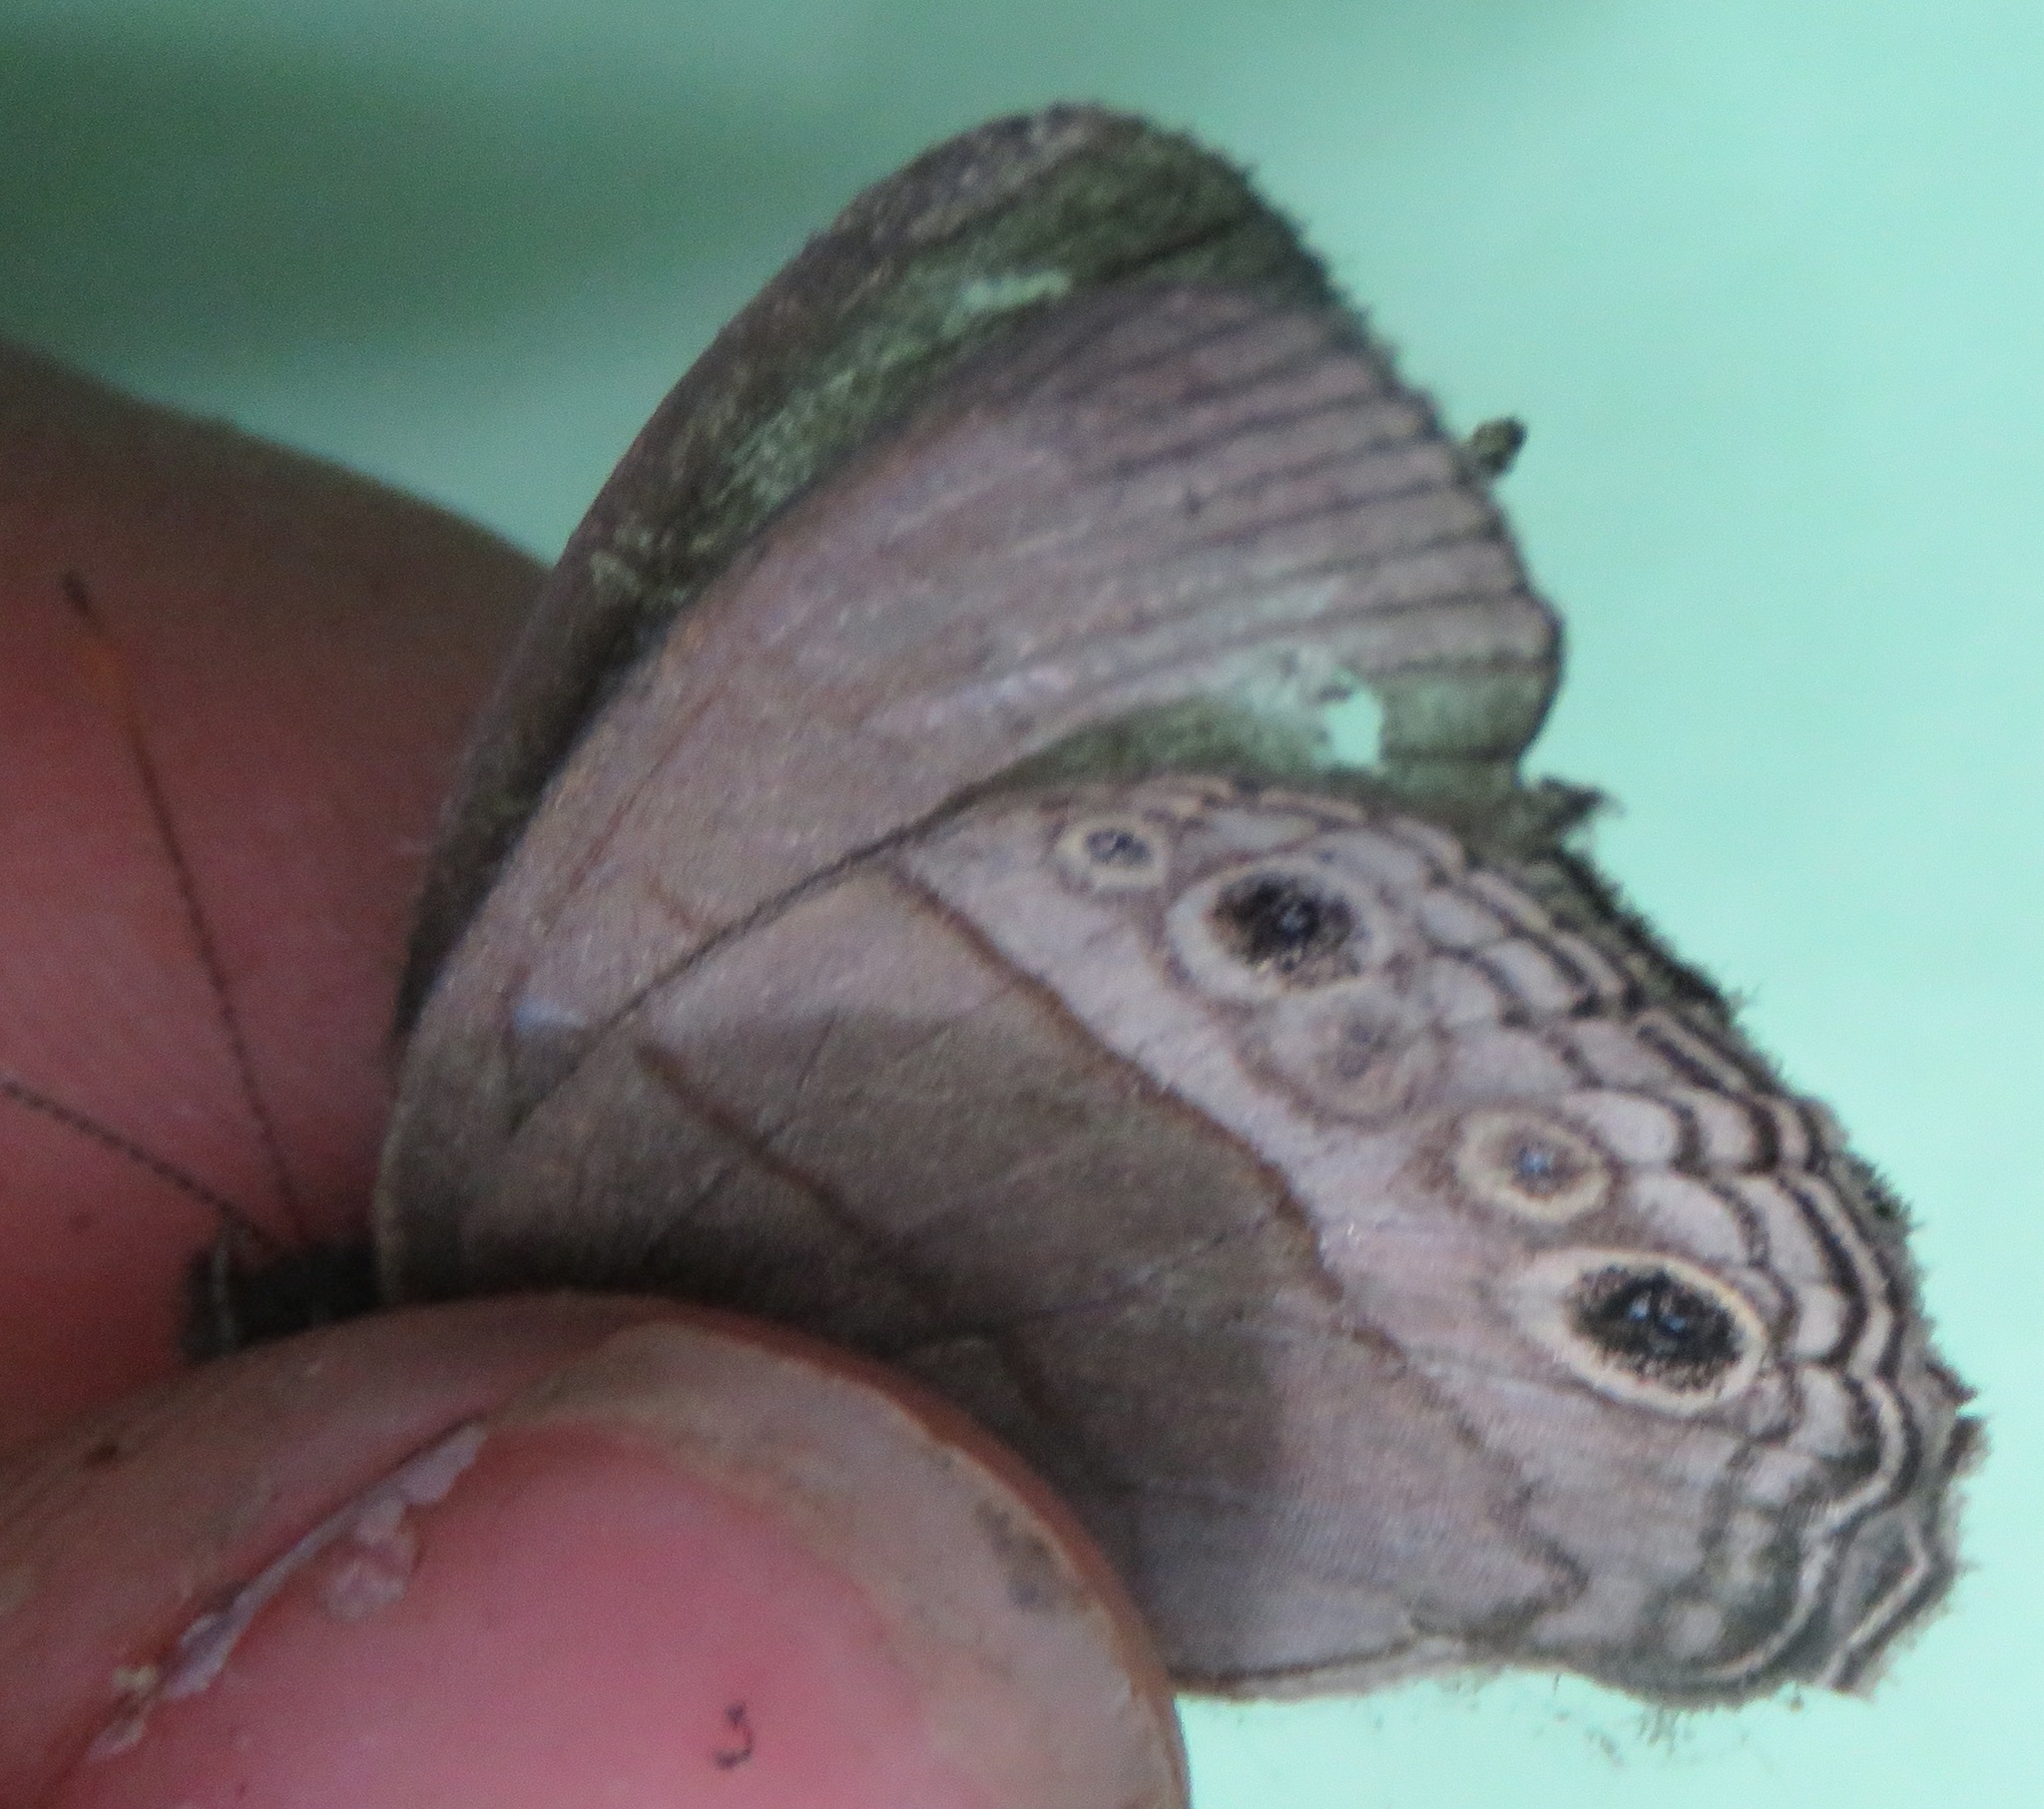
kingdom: Animalia
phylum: Arthropoda
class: Insecta
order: Lepidoptera
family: Nymphalidae
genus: Vareuptychia
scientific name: Vareuptychia similis
